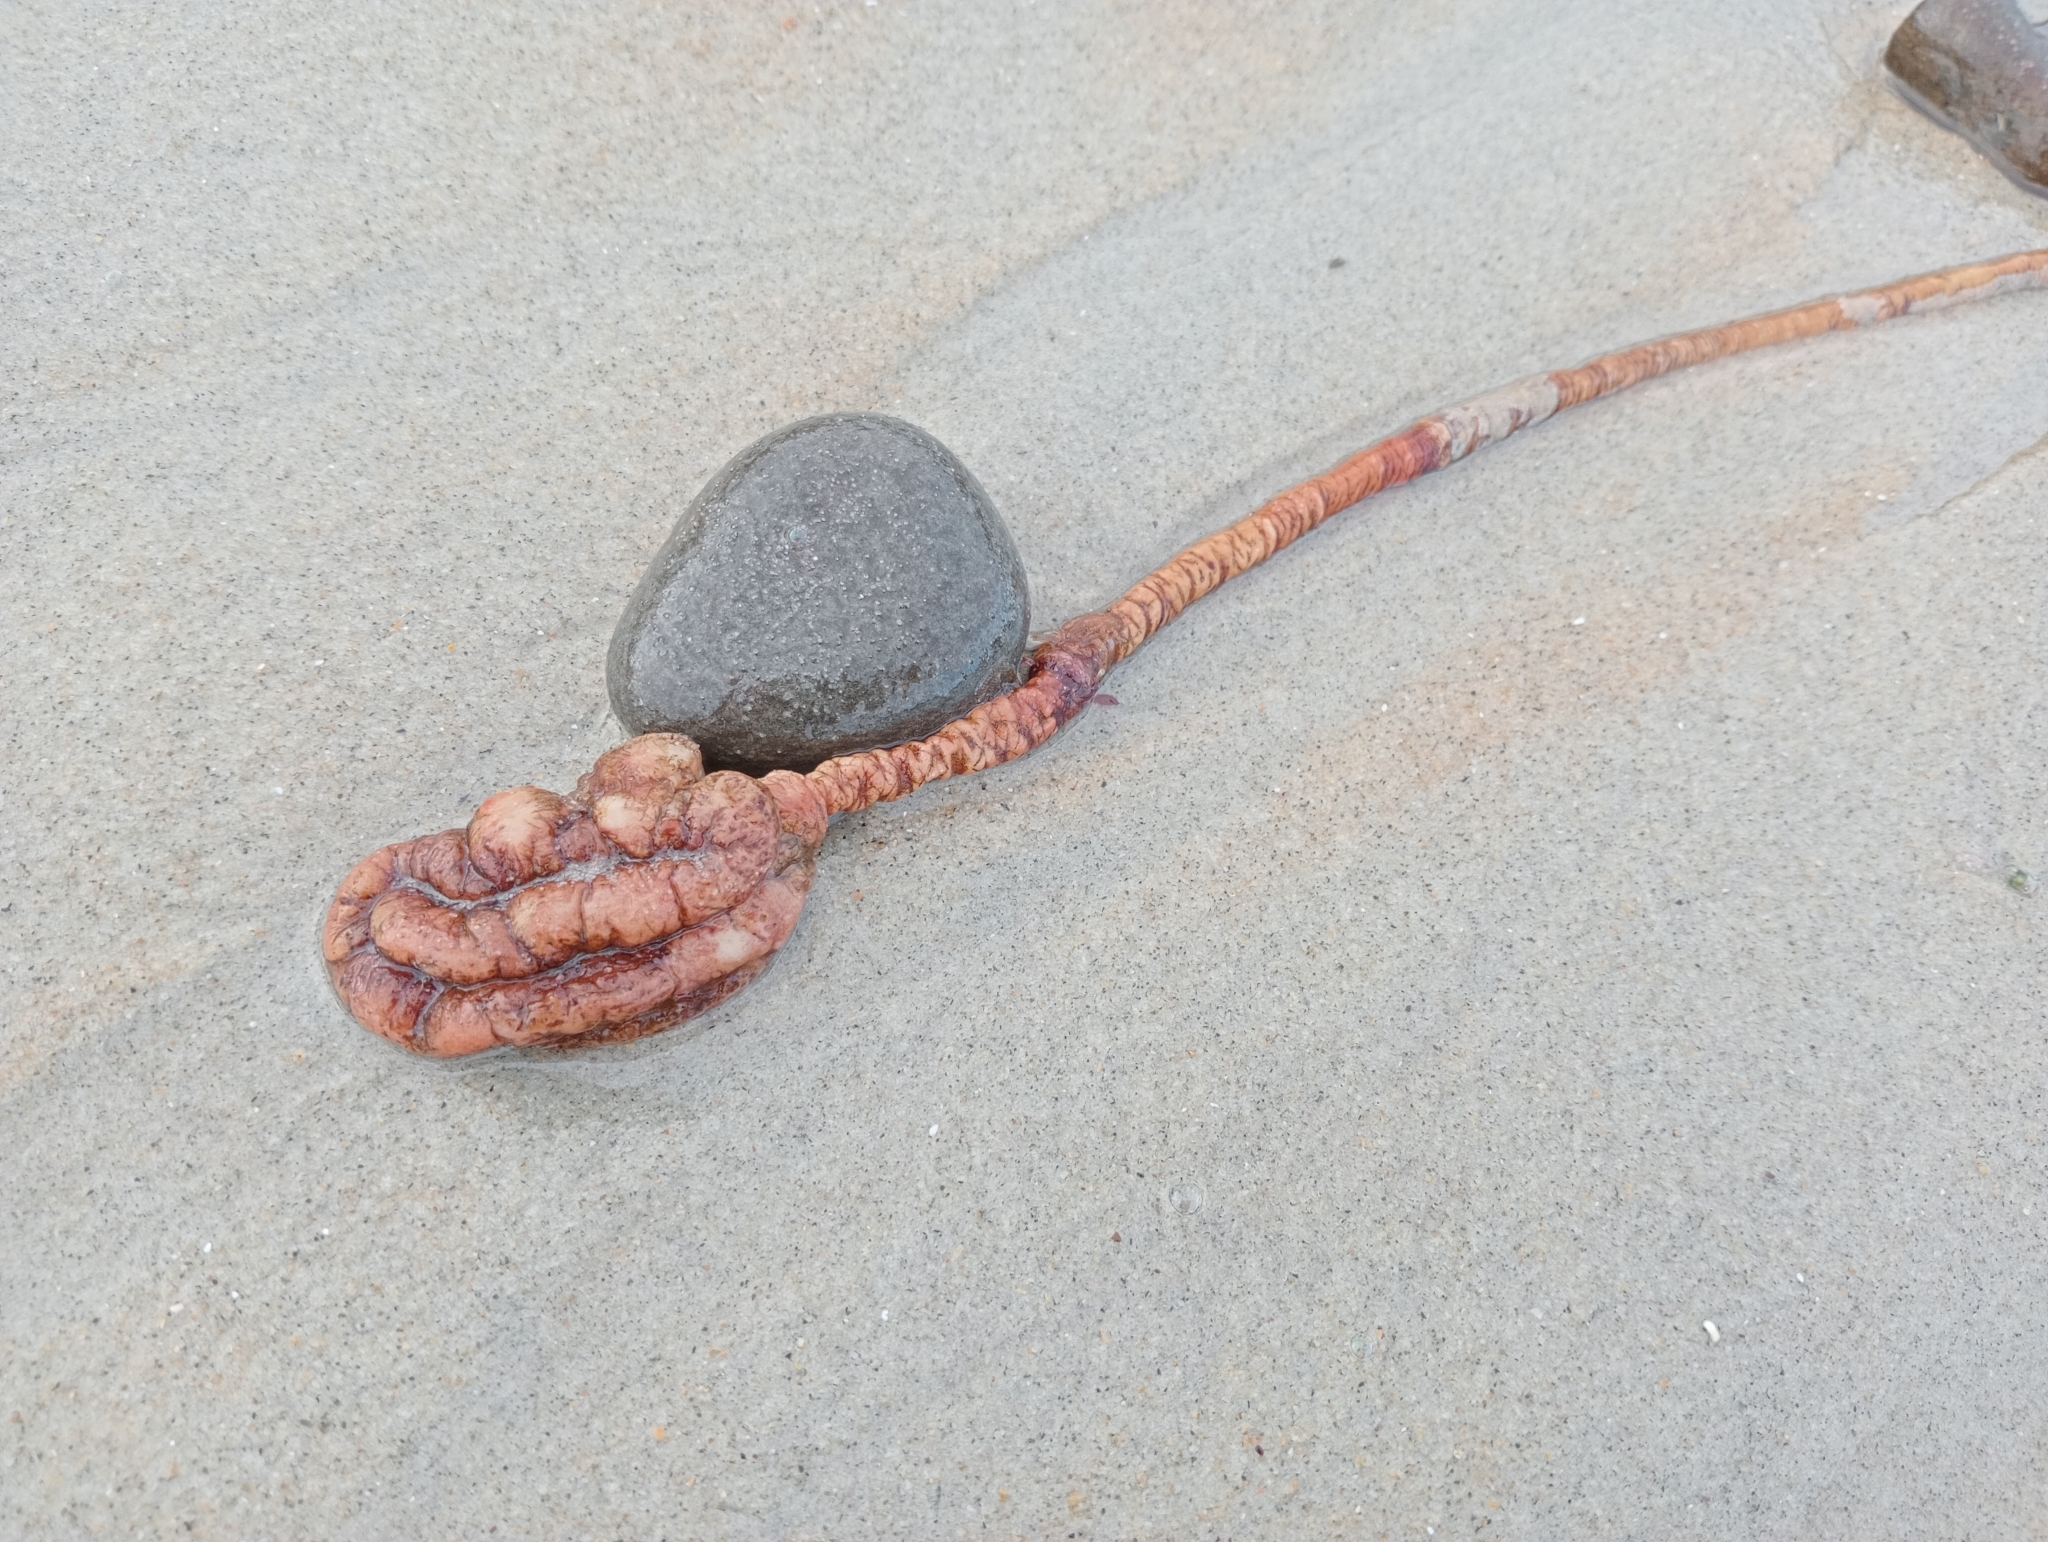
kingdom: Animalia
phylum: Chordata
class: Ascidiacea
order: Stolidobranchia
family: Pyuridae
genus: Pyura
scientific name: Pyura pachydermatina
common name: Sea tulip
